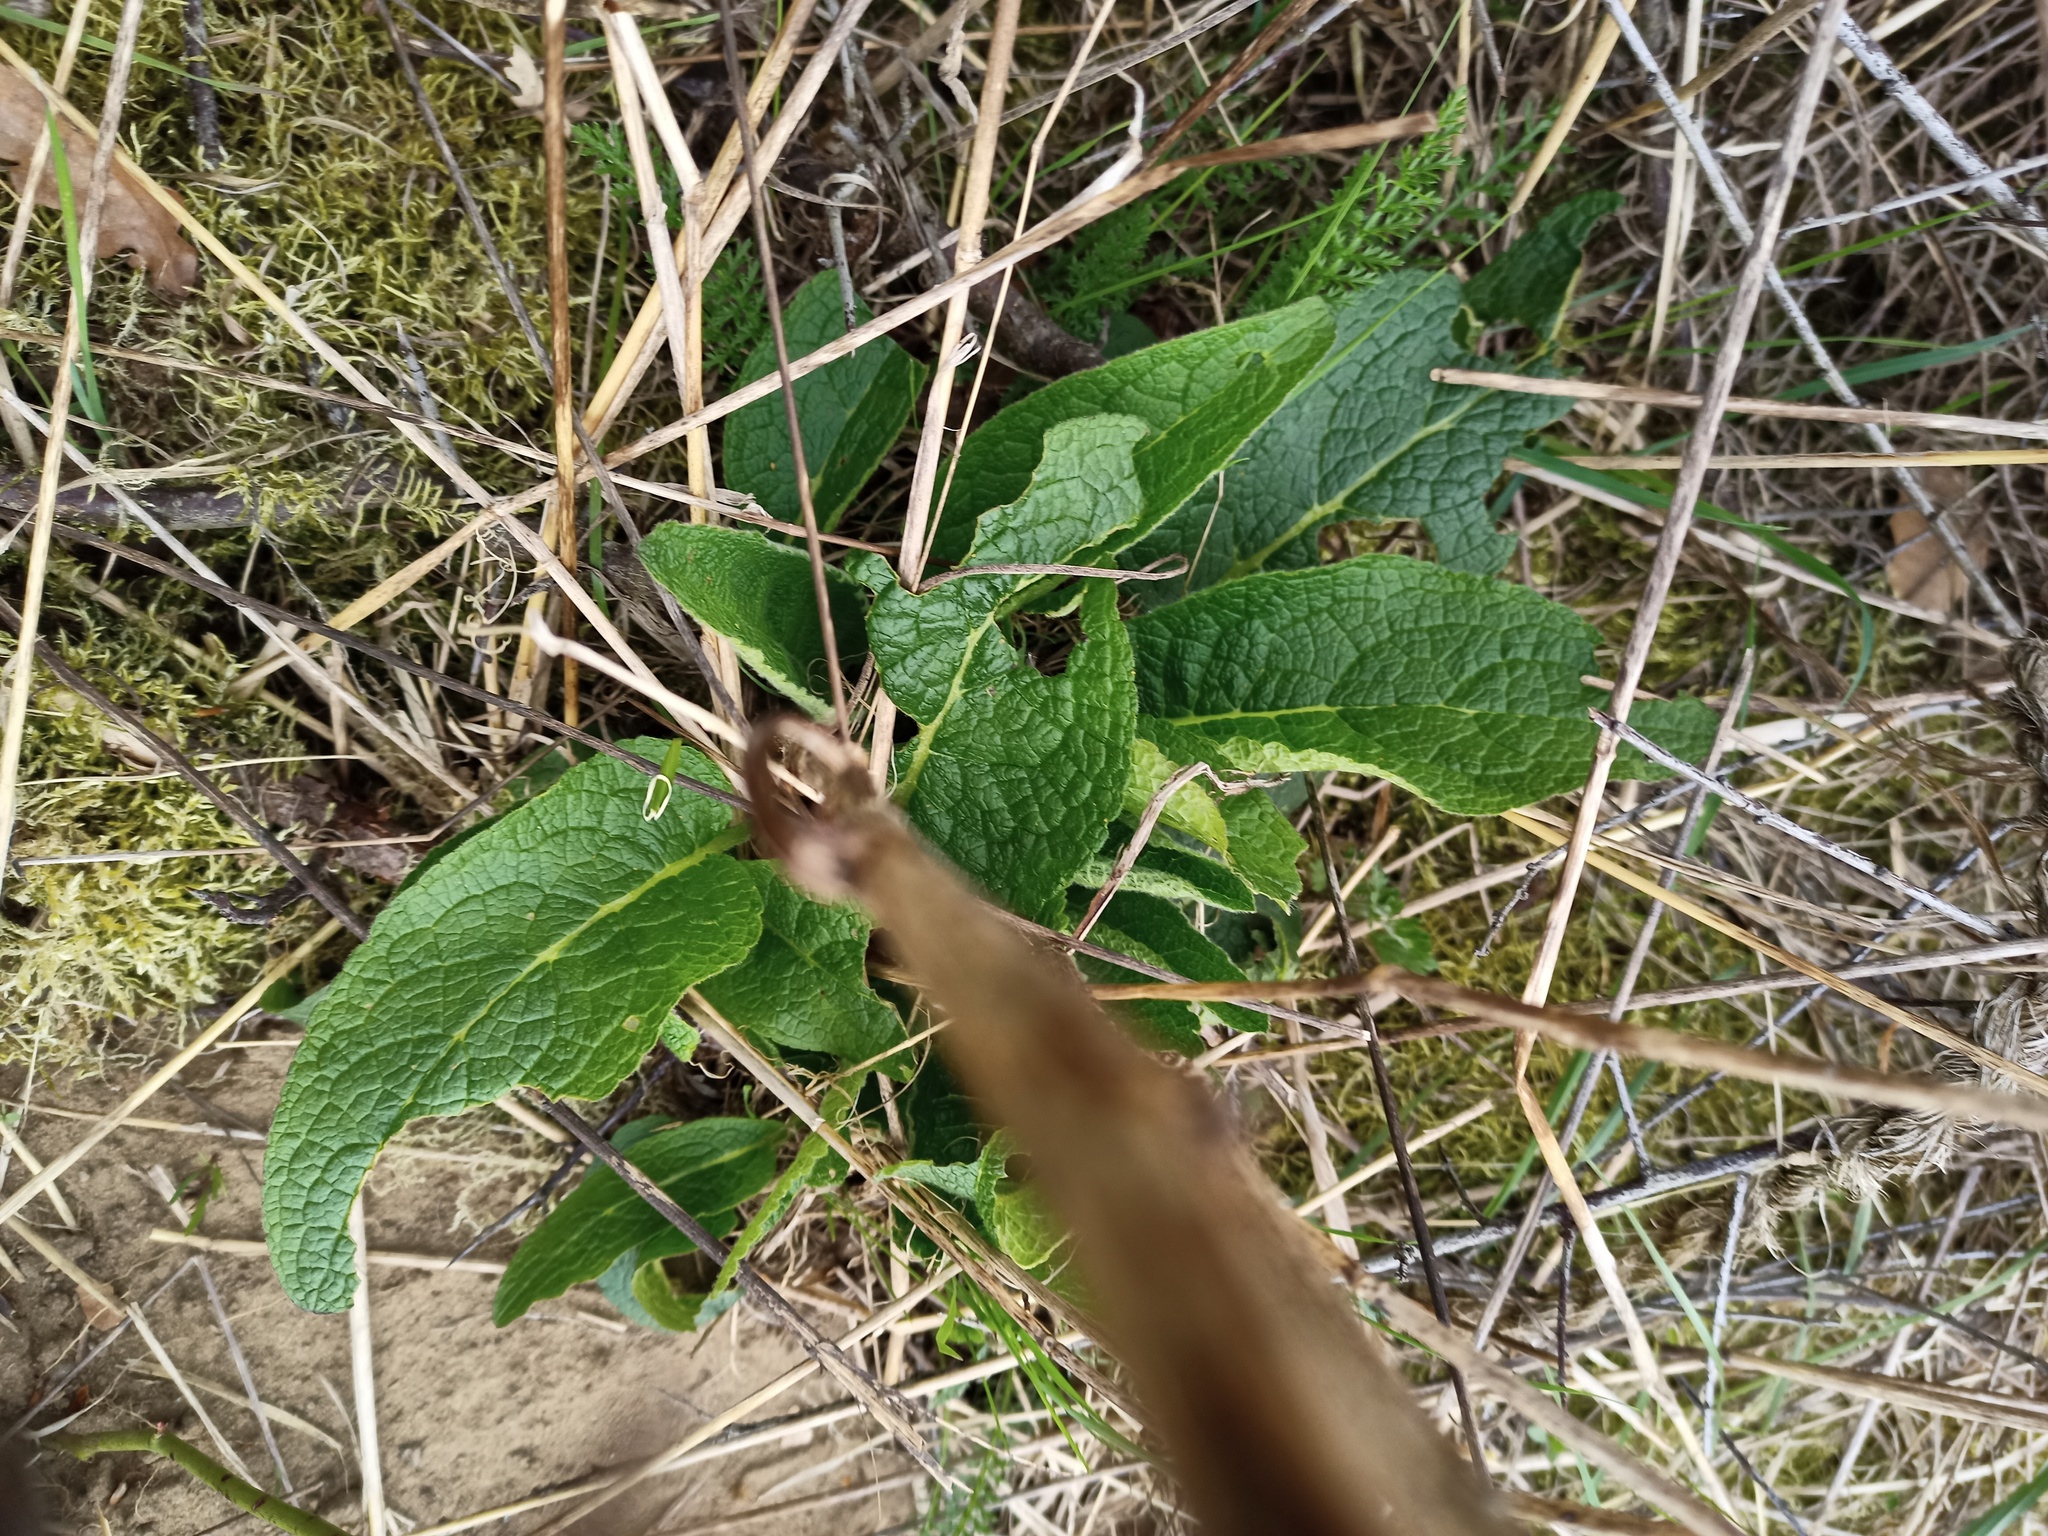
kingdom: Plantae
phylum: Tracheophyta
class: Magnoliopsida
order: Lamiales
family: Scrophulariaceae
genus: Verbascum
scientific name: Verbascum nigrum
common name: Dark mullein
